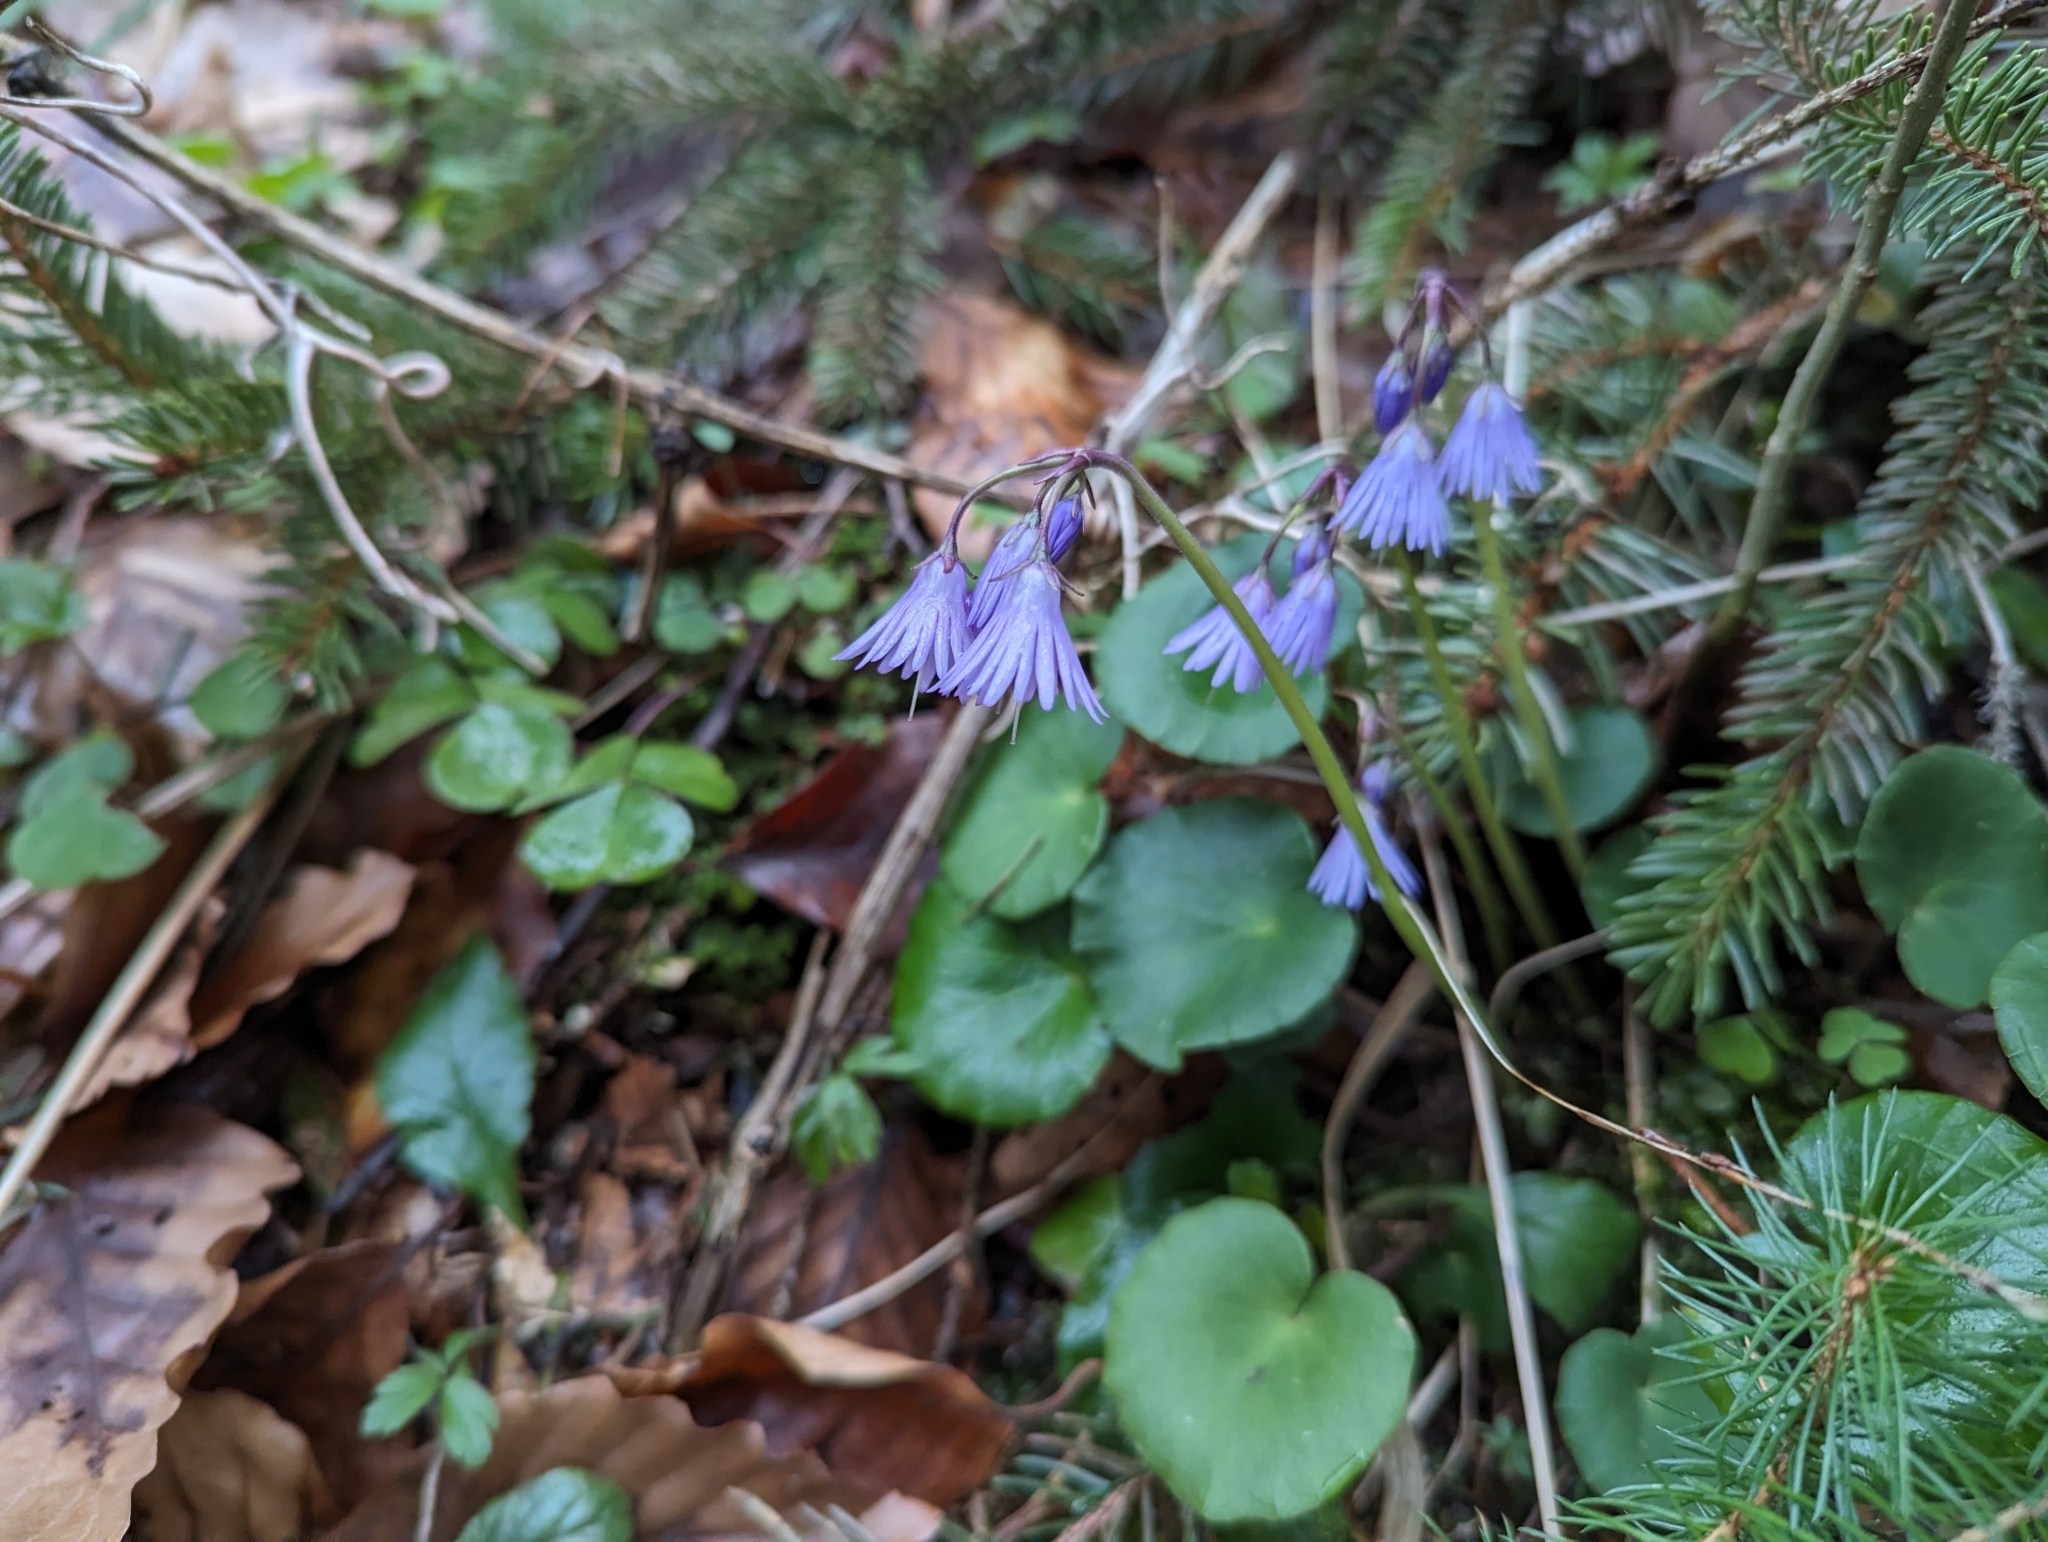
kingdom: Plantae
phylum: Tracheophyta
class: Magnoliopsida
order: Ericales
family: Primulaceae
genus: Soldanella
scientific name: Soldanella montana
